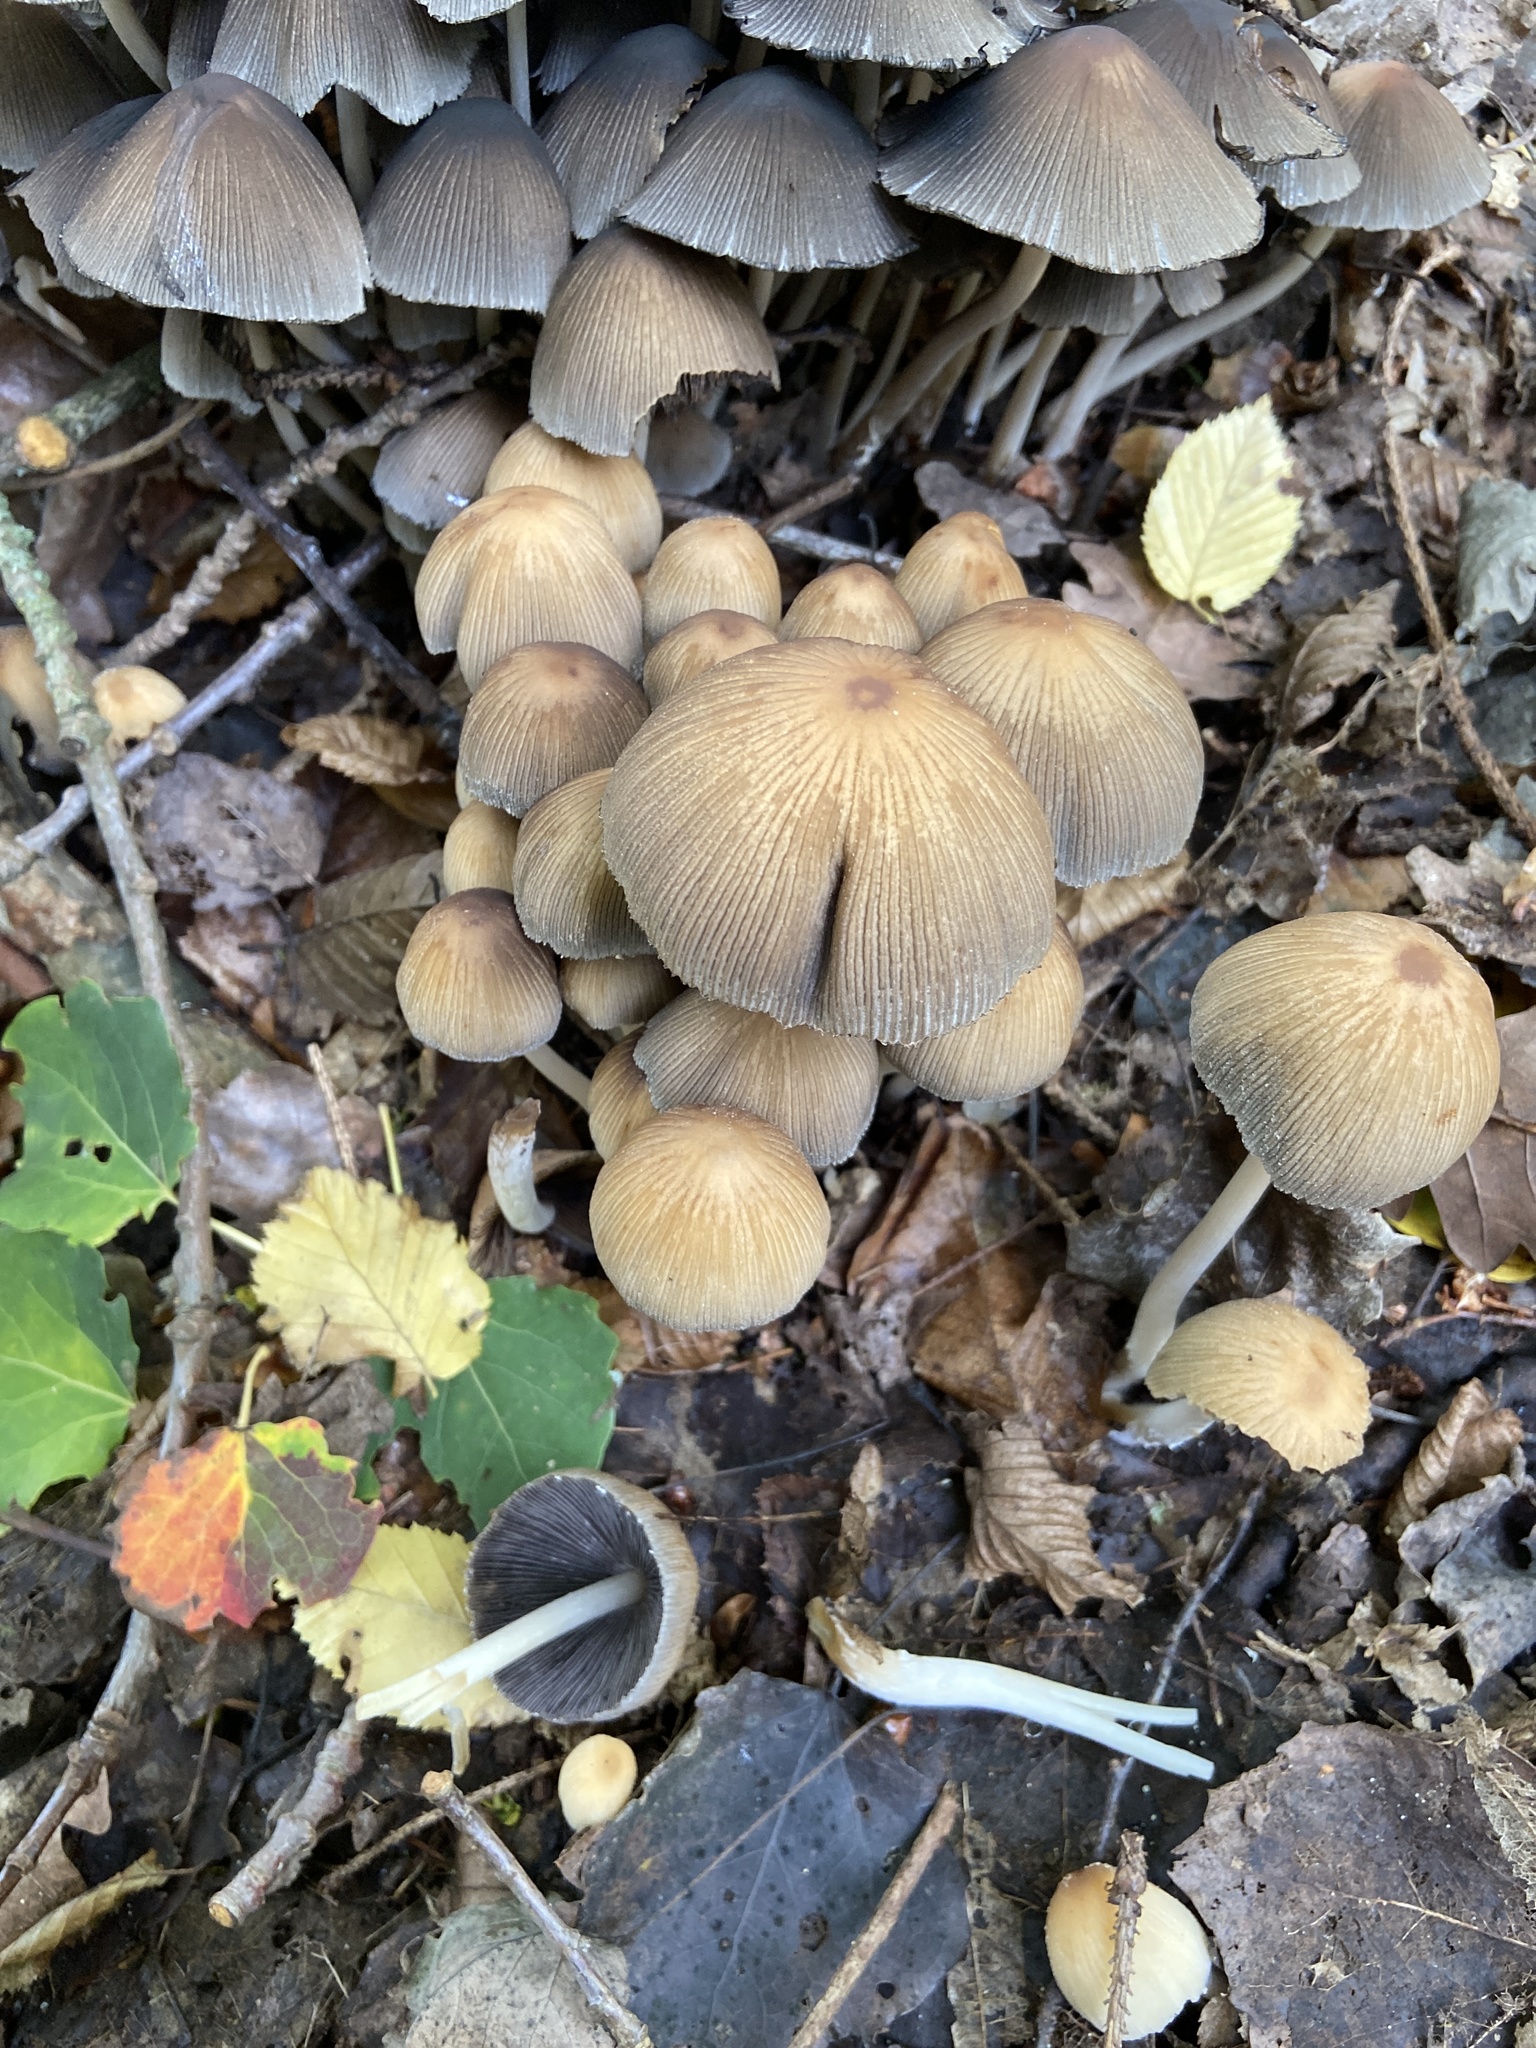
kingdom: Fungi
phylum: Basidiomycota
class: Agaricomycetes
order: Agaricales
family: Psathyrellaceae
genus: Coprinellus
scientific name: Coprinellus micaceus
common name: Glistening ink-cap
